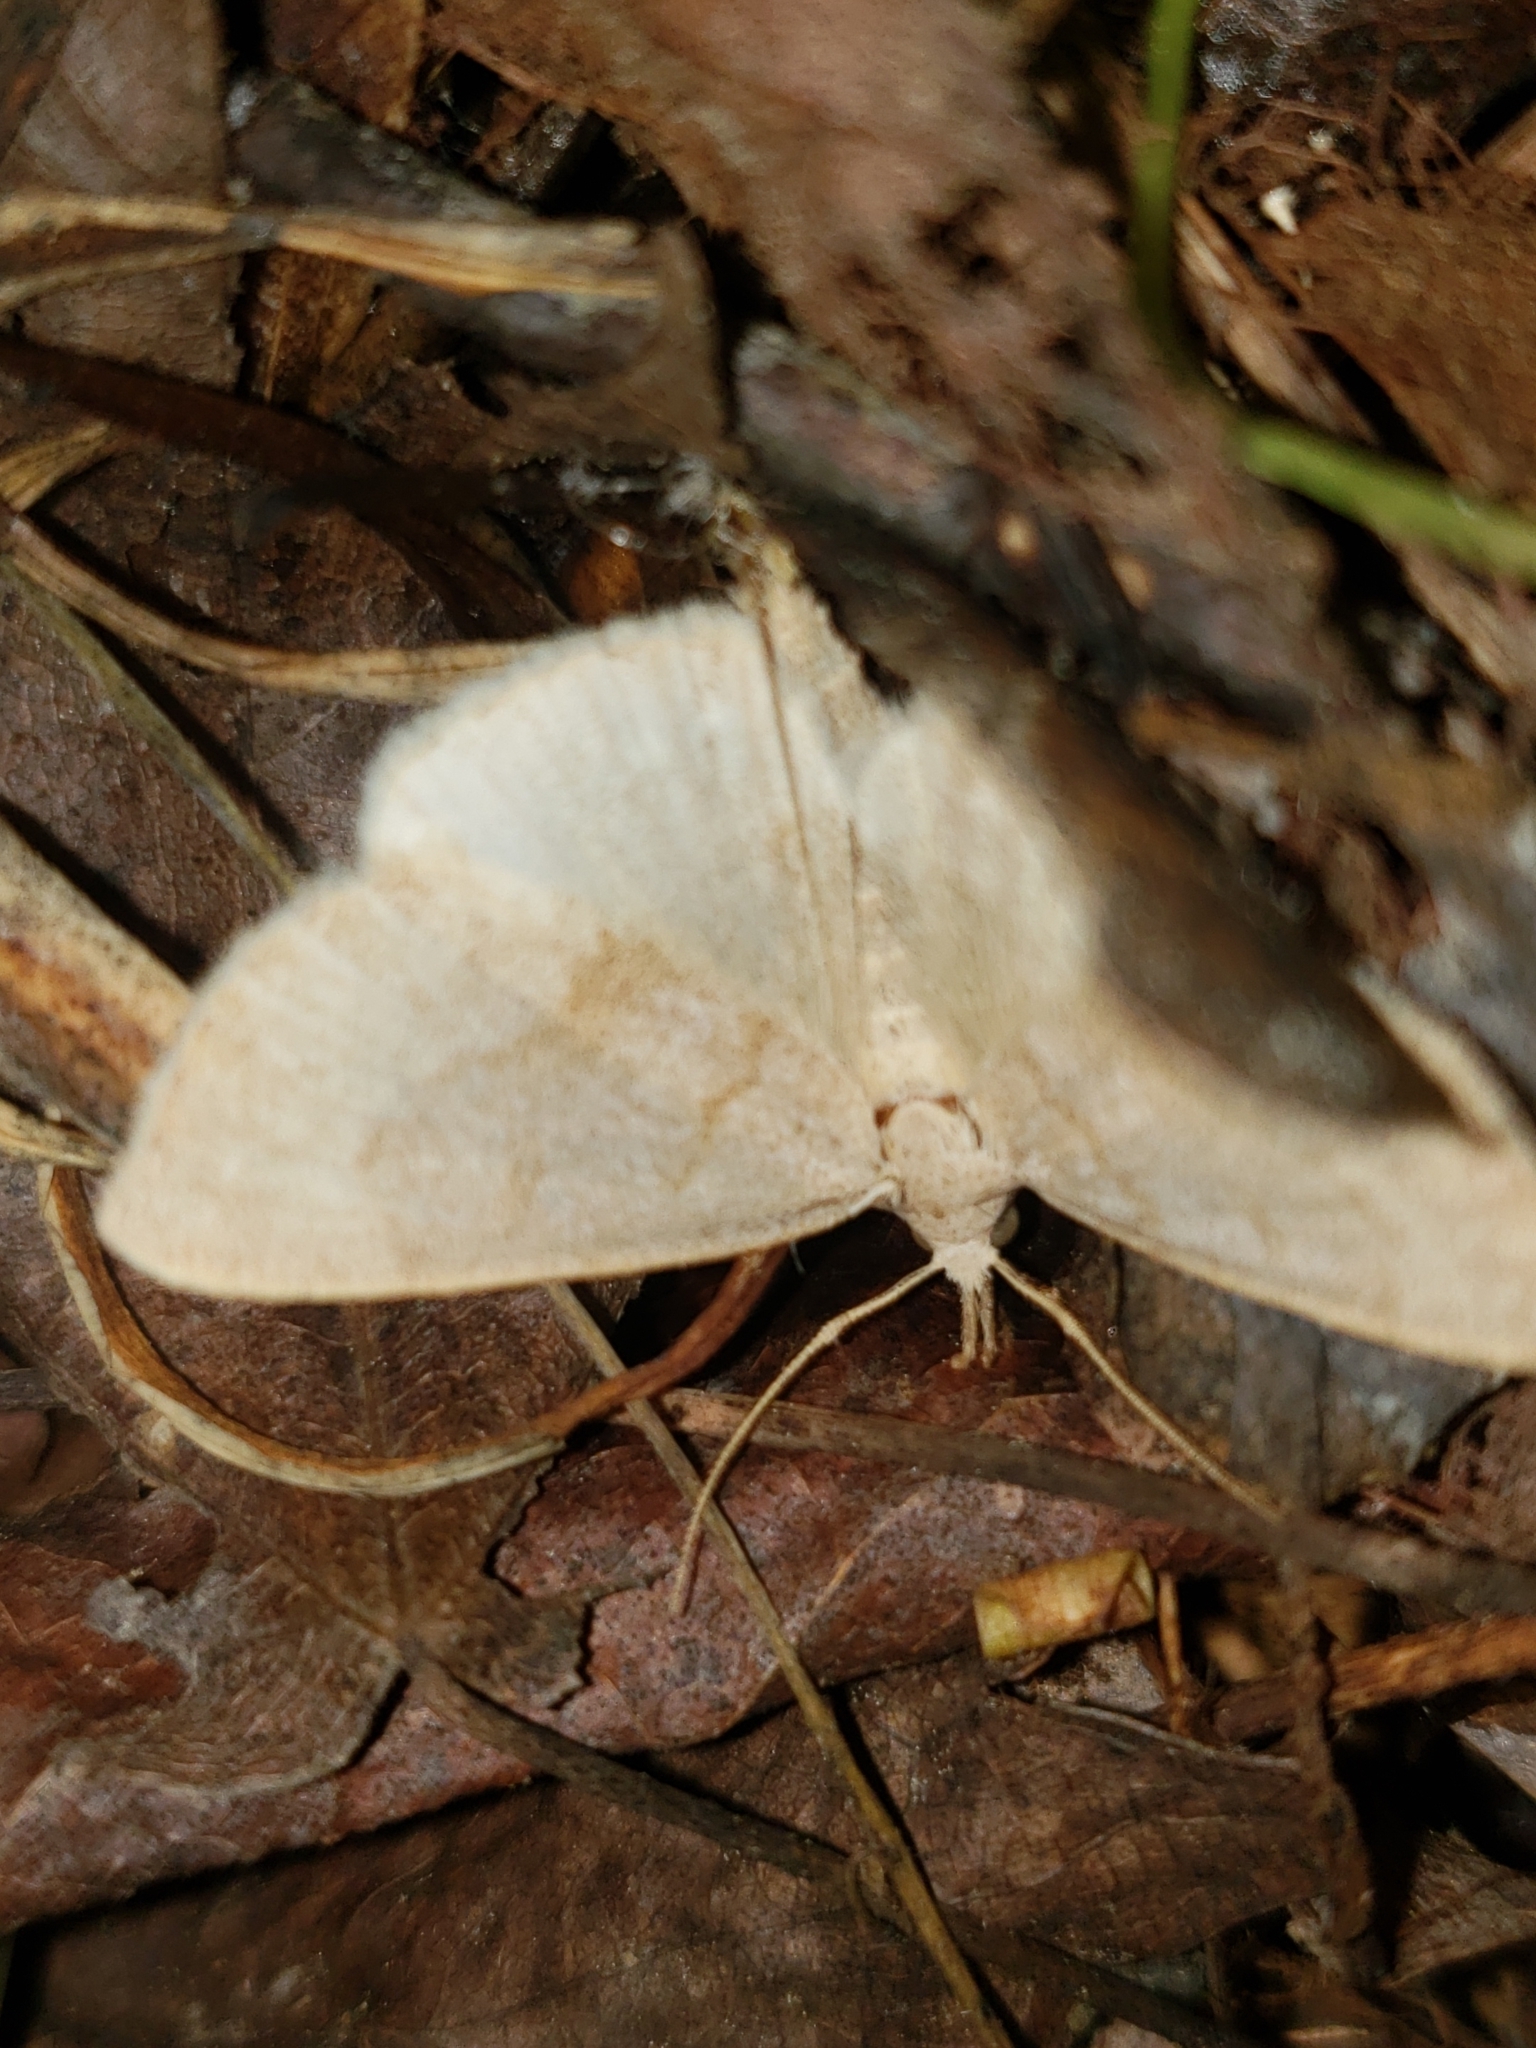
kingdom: Animalia
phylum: Arthropoda
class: Insecta
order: Lepidoptera
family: Erebidae
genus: Macrochilo
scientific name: Macrochilo morbidalis
